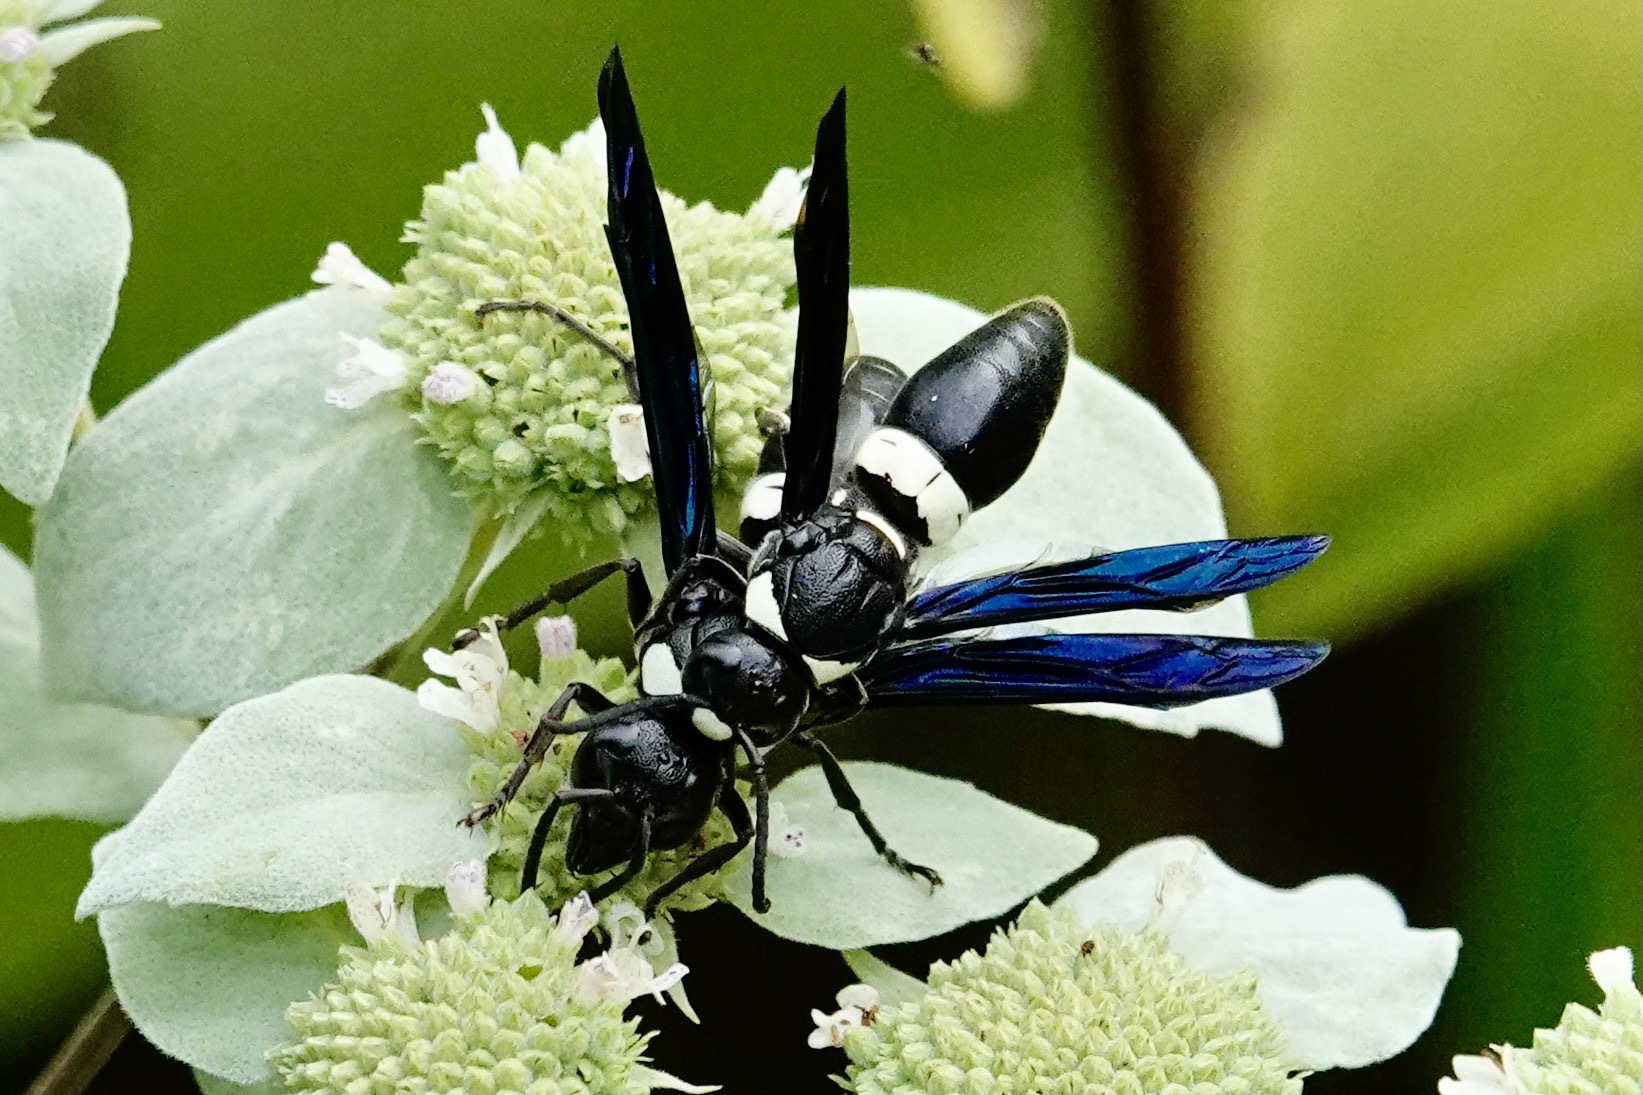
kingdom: Animalia
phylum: Arthropoda
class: Insecta
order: Hymenoptera
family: Eumenidae
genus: Monobia
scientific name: Monobia quadridens
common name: Four-toothed mason wasp
